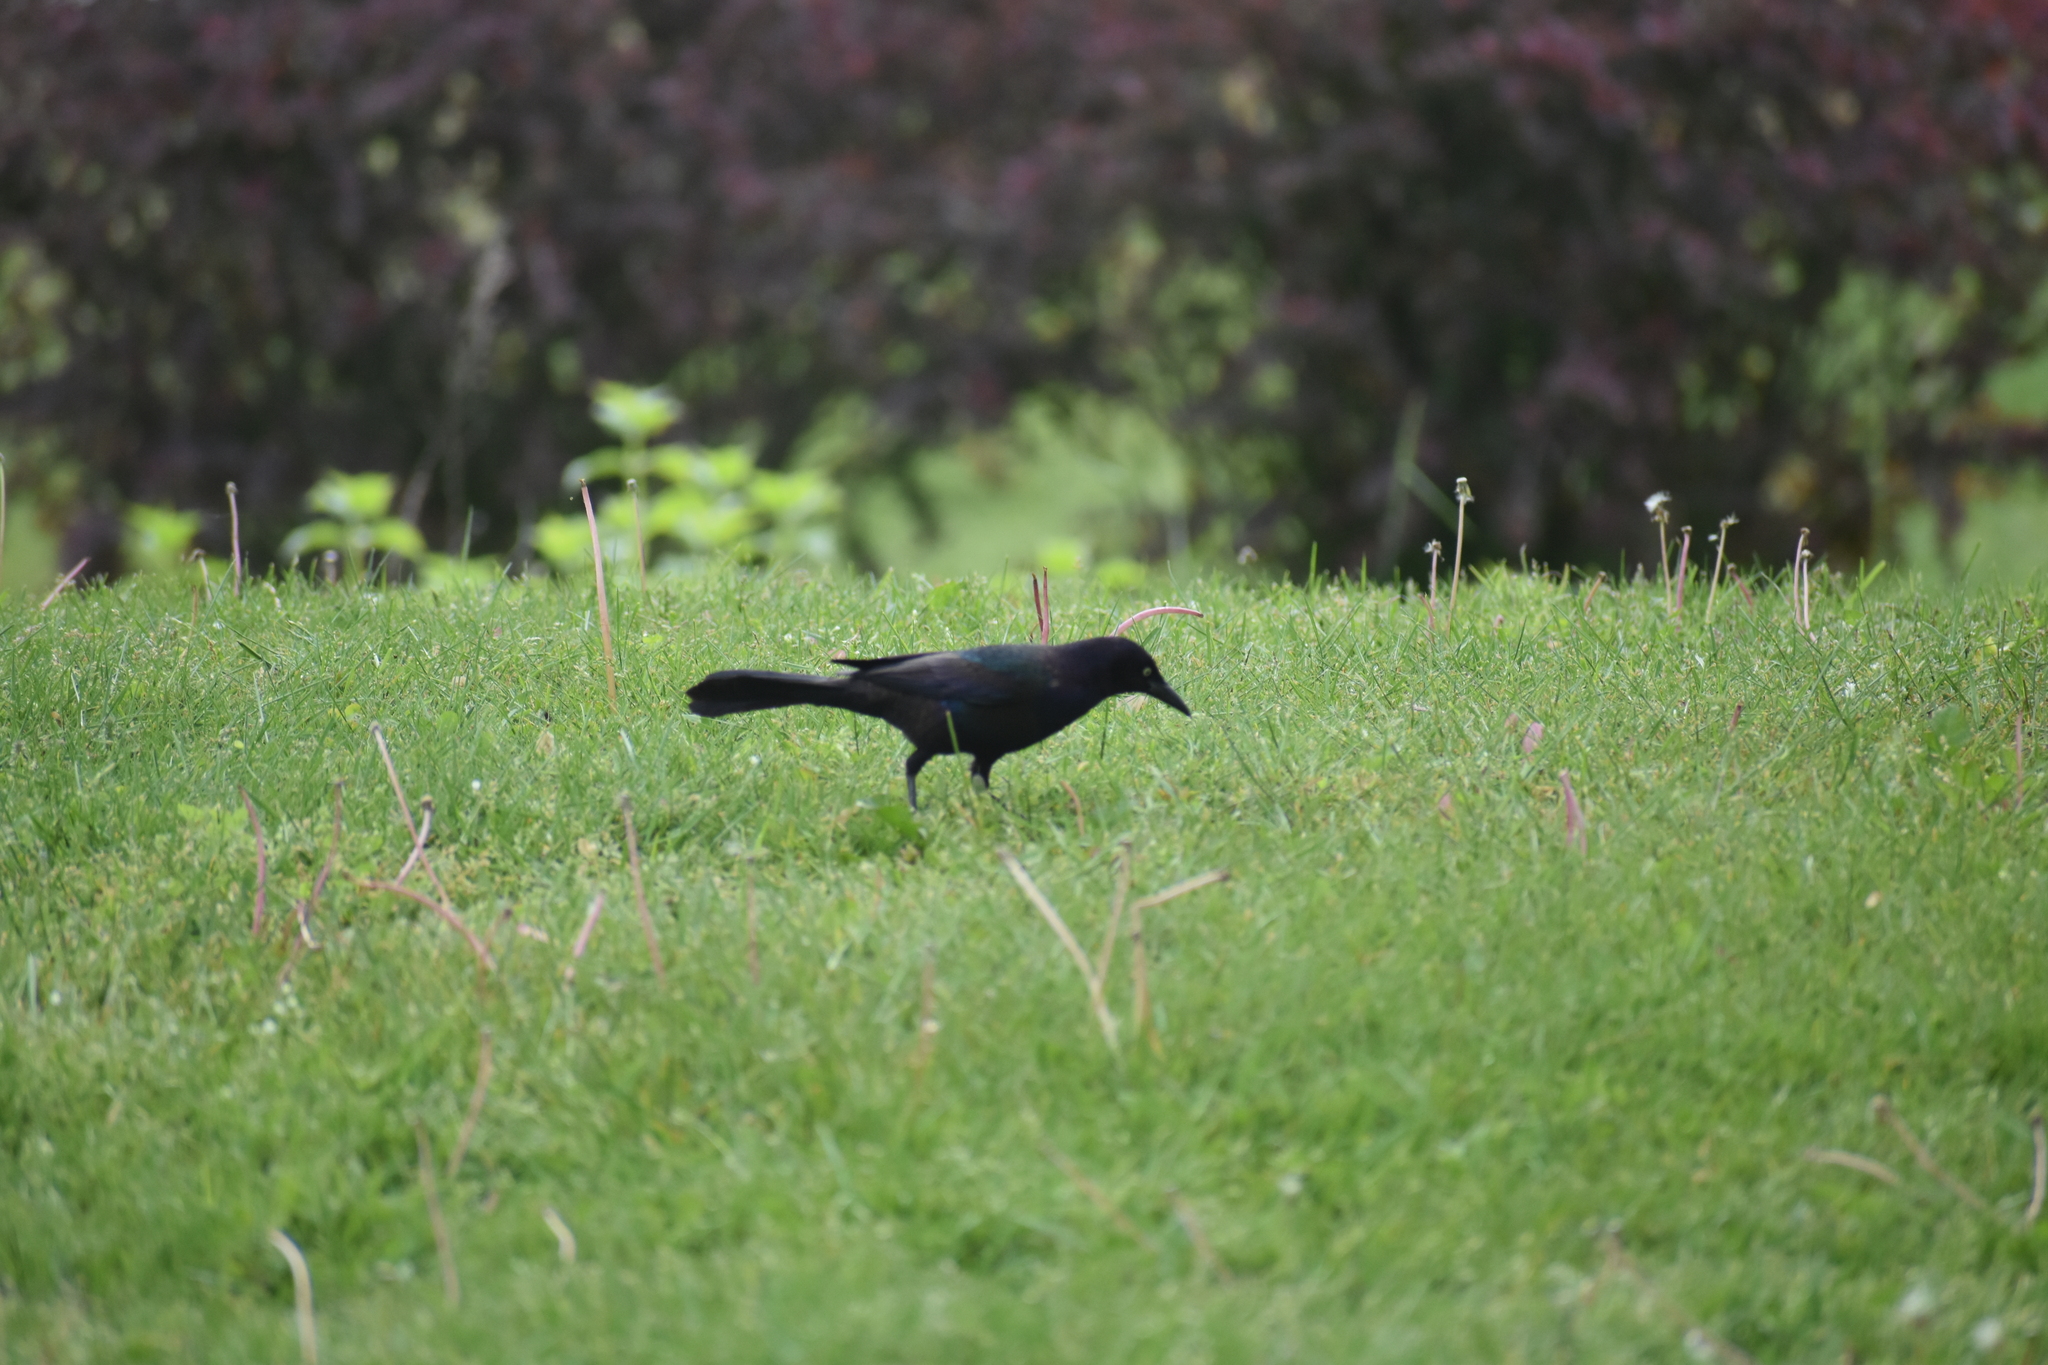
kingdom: Animalia
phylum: Chordata
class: Aves
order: Passeriformes
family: Icteridae
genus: Quiscalus
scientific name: Quiscalus quiscula
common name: Common grackle
